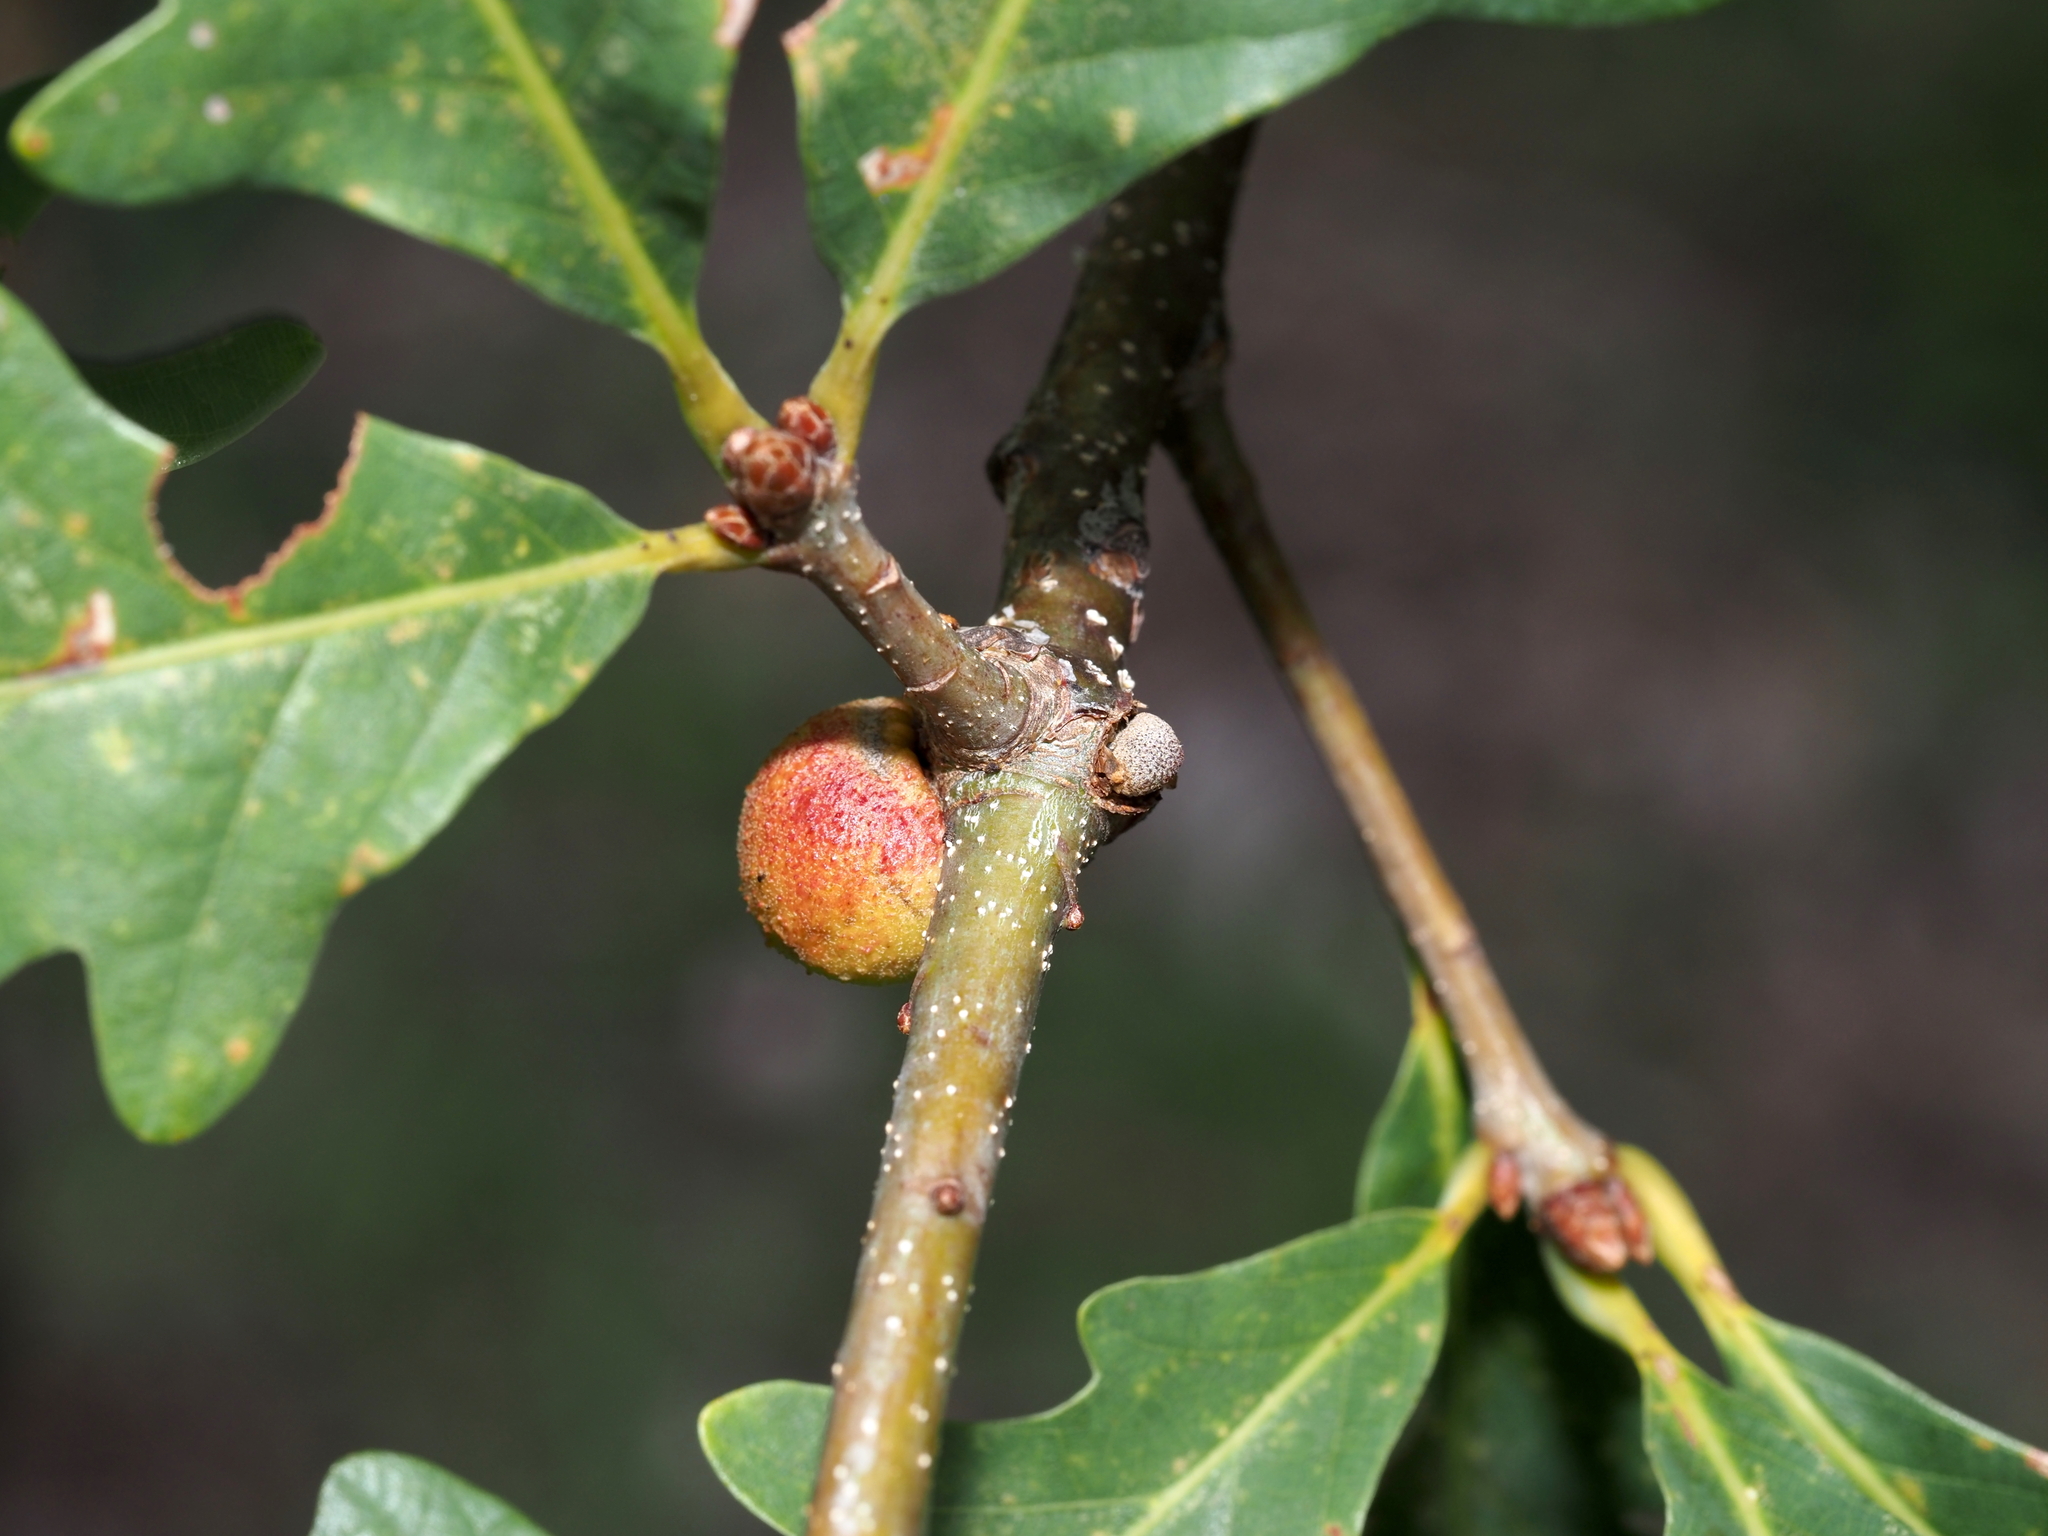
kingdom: Animalia
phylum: Arthropoda
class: Insecta
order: Hymenoptera
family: Cynipidae
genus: Disholcaspis
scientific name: Disholcaspis quercusglobulus
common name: Round bullet gall wasp
